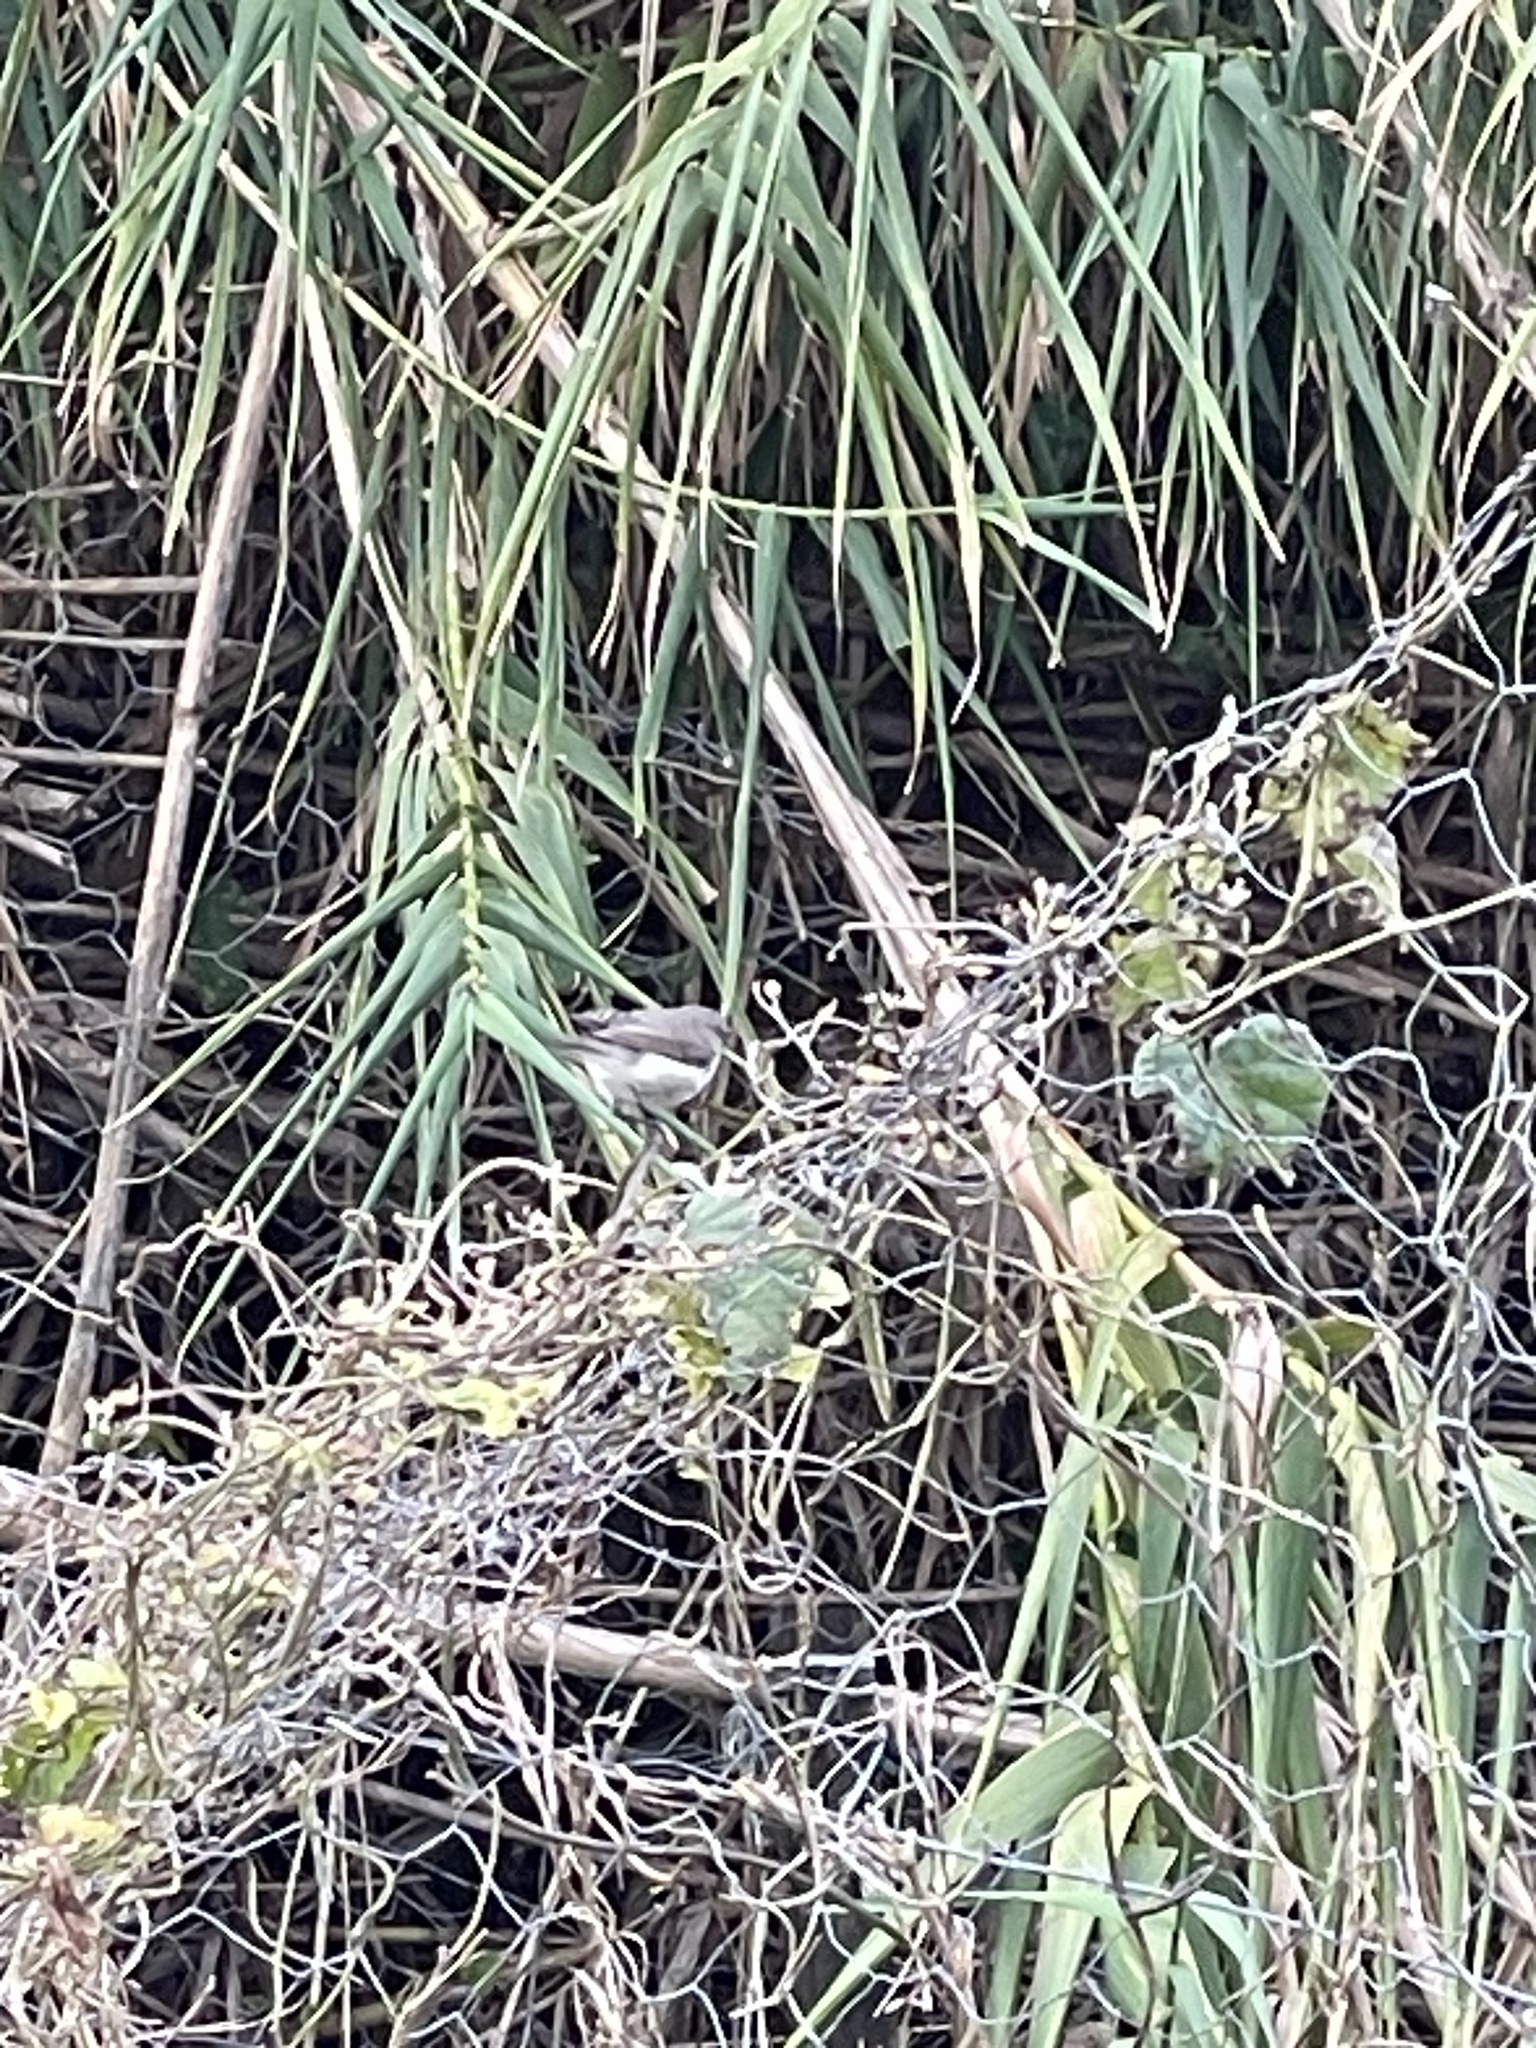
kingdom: Animalia
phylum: Chordata
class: Aves
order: Passeriformes
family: Acanthizidae
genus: Gerygone
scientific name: Gerygone igata
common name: Grey gerygone
